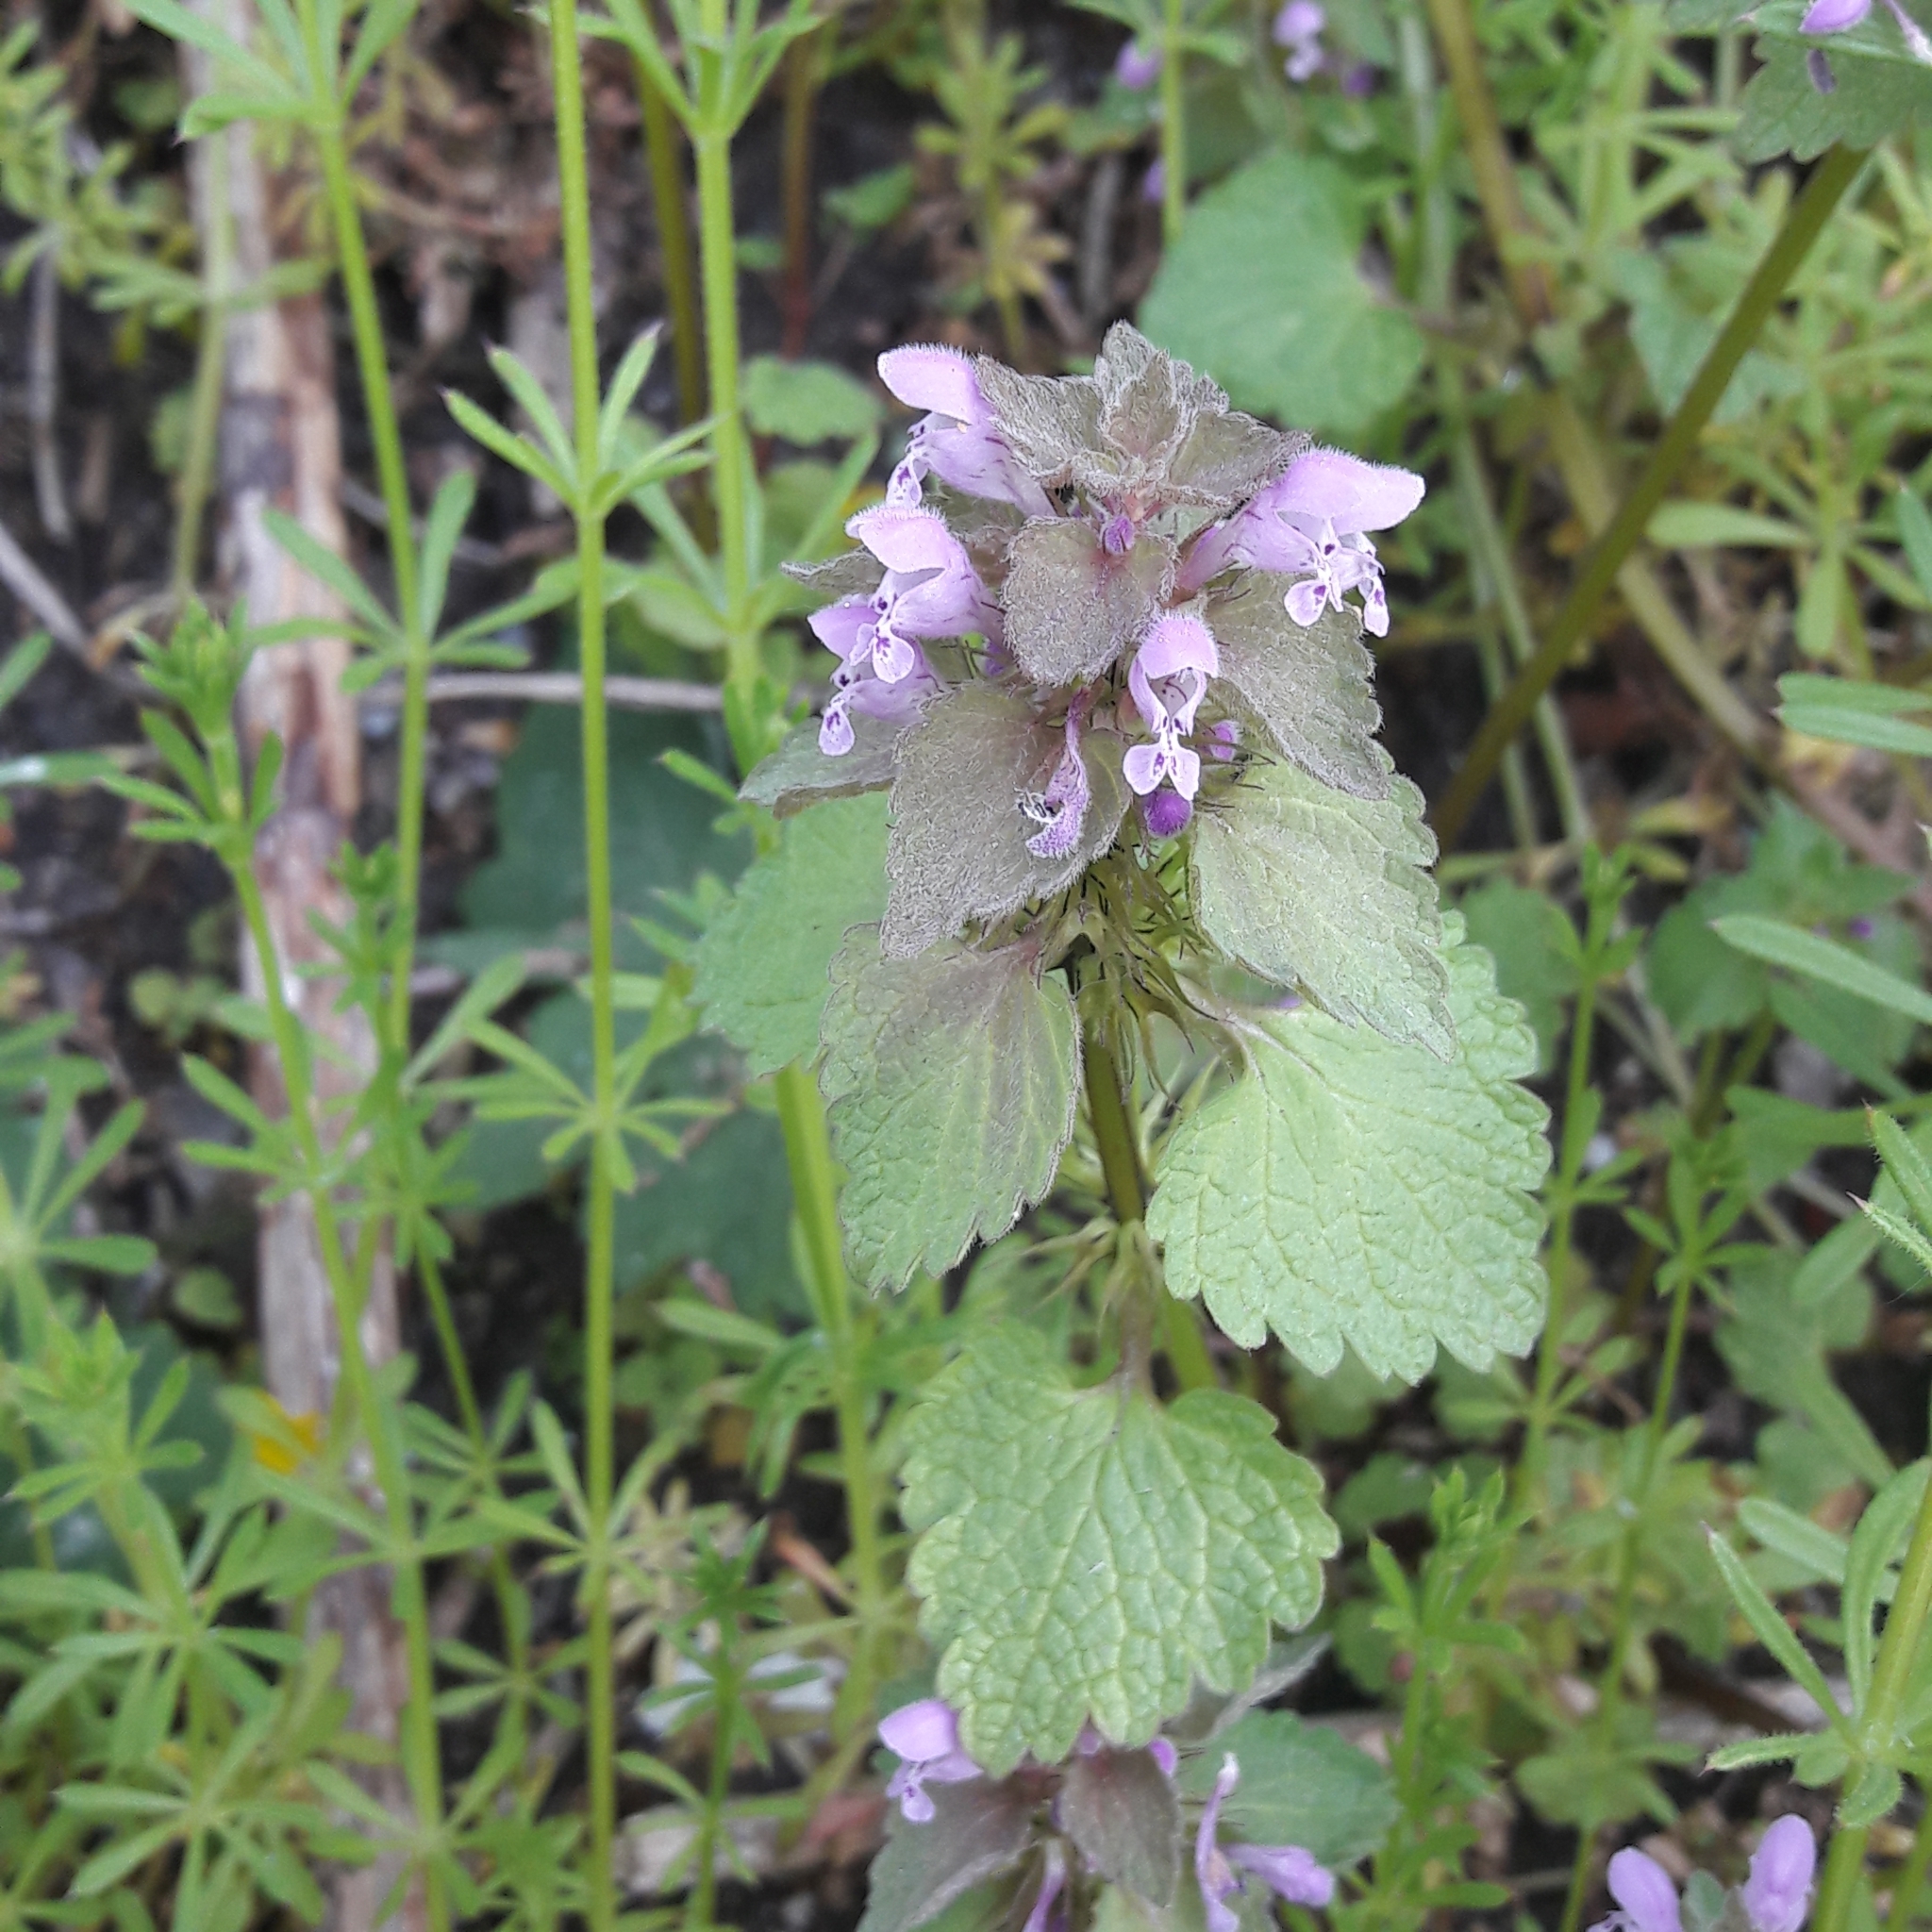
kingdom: Plantae
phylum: Tracheophyta
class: Magnoliopsida
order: Lamiales
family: Lamiaceae
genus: Lamium
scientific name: Lamium purpureum
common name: Red dead-nettle
